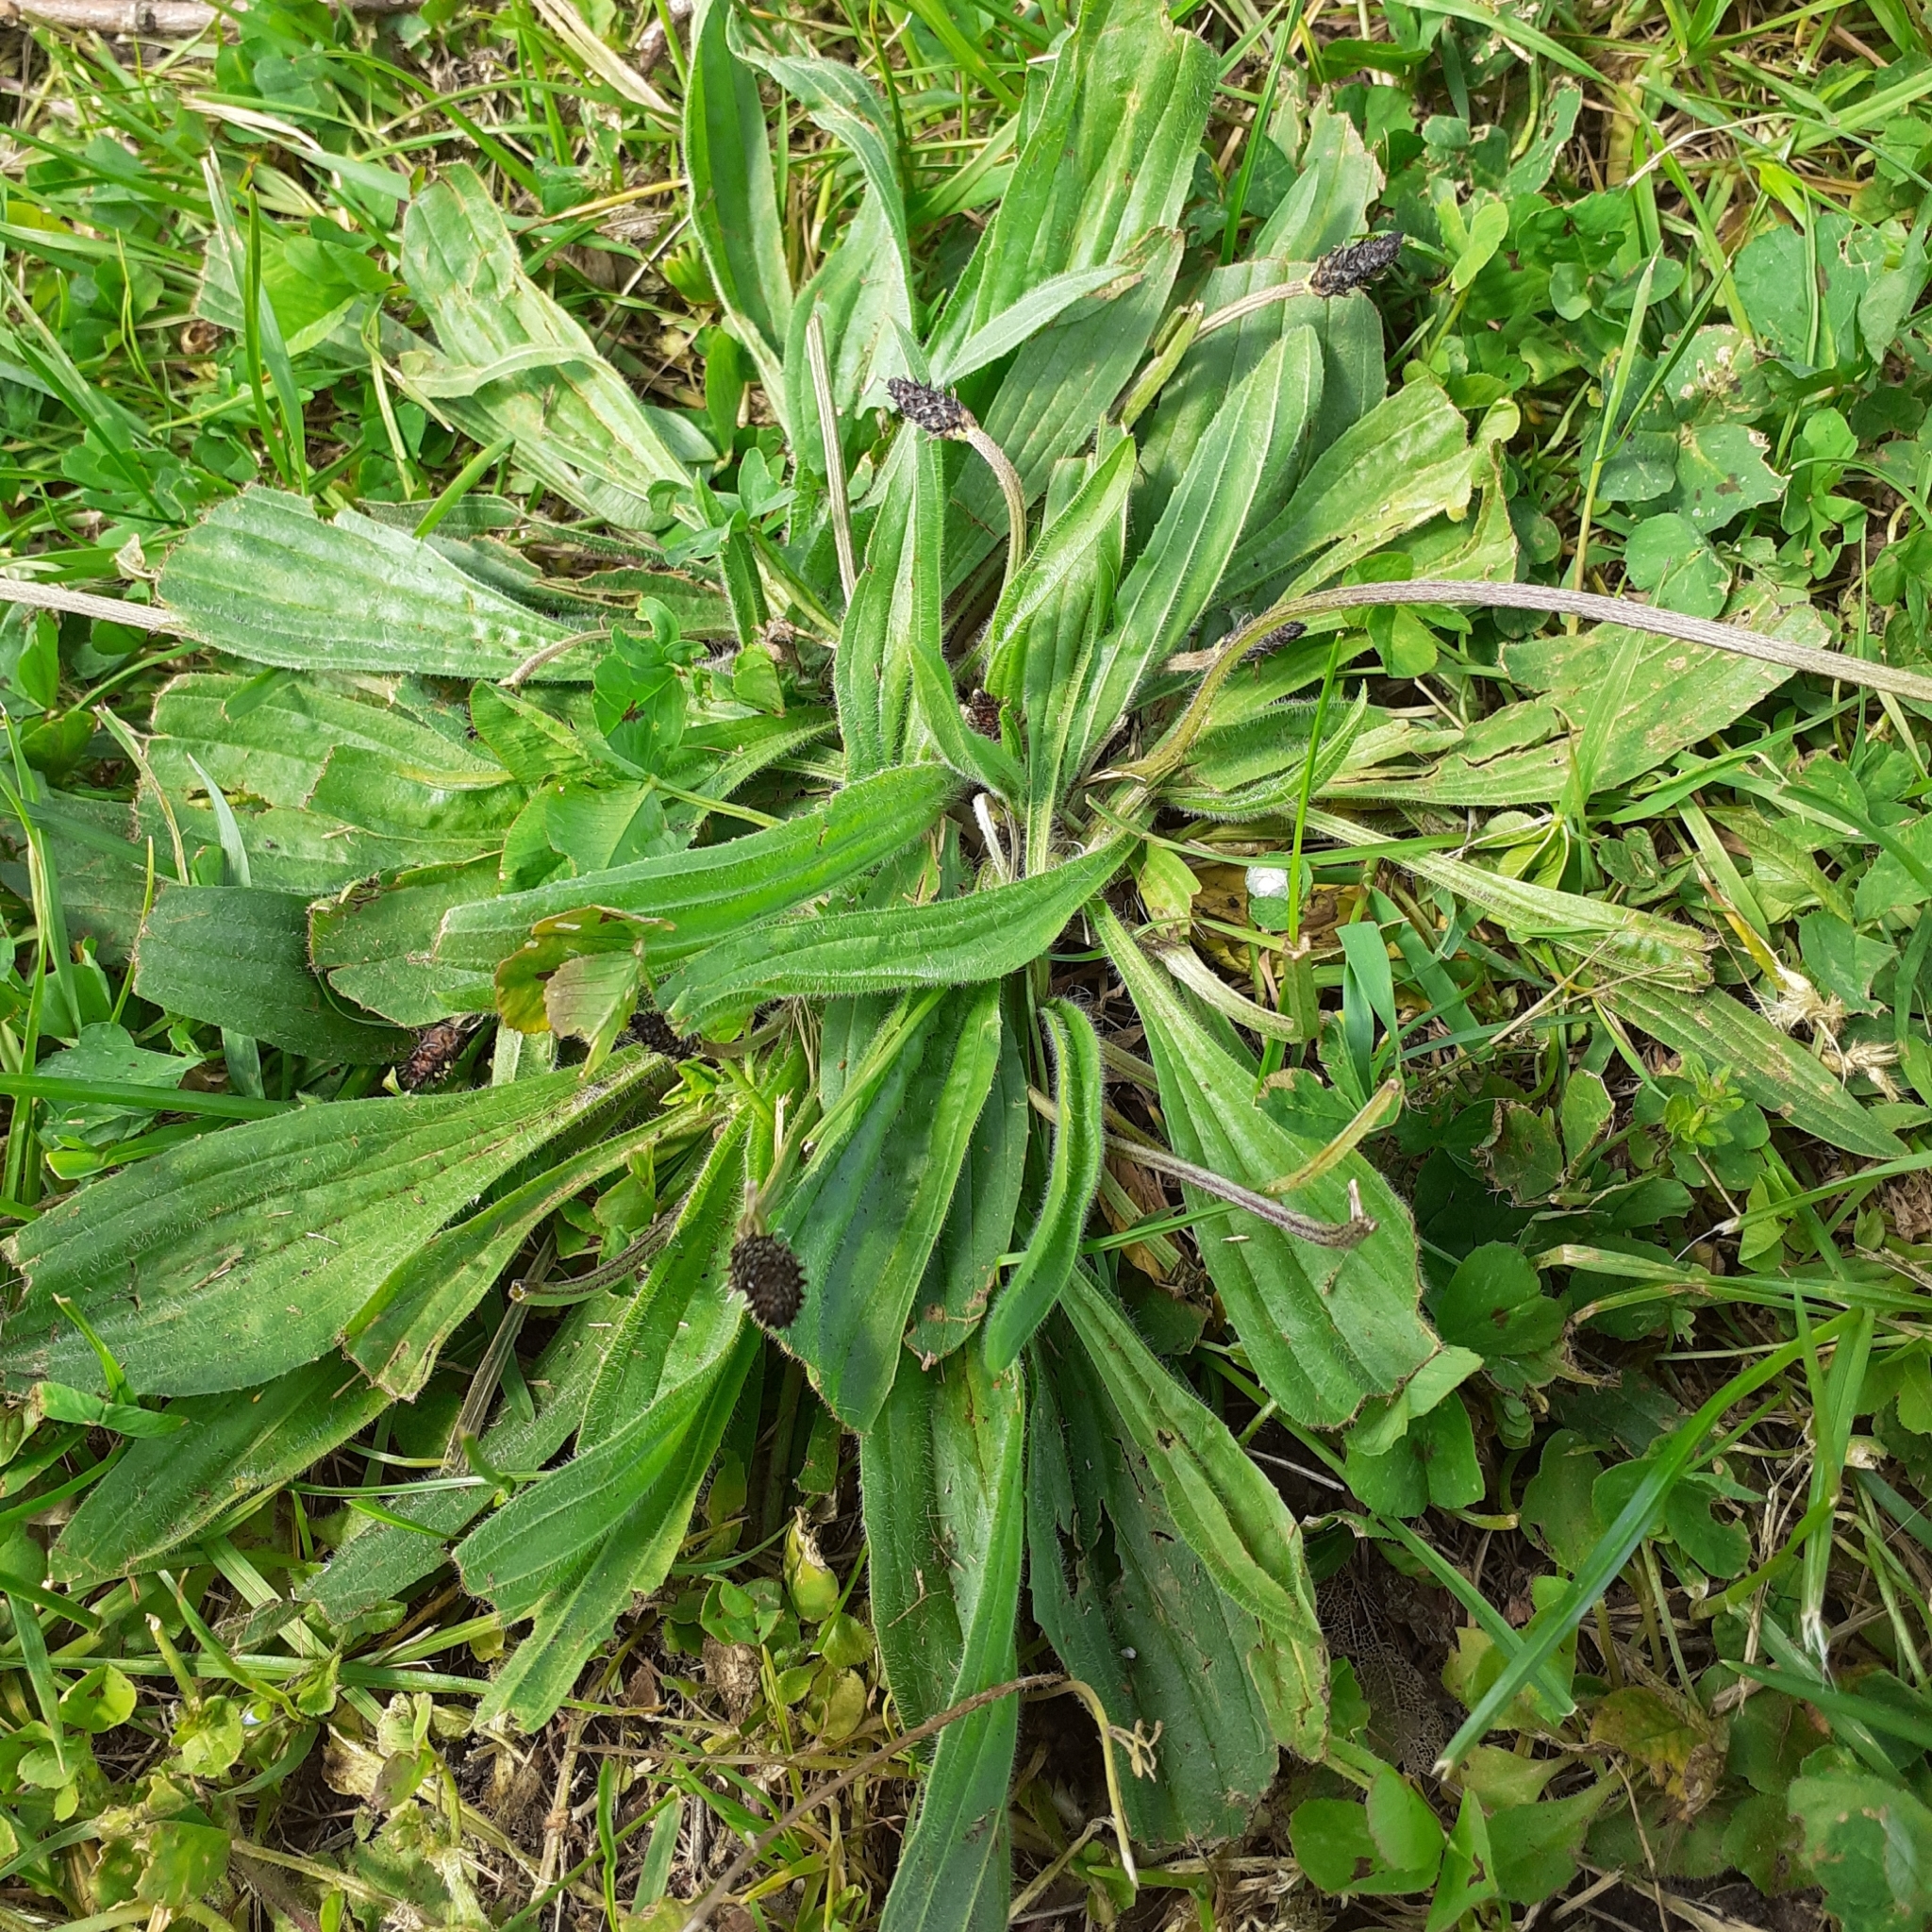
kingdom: Plantae
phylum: Tracheophyta
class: Magnoliopsida
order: Lamiales
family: Plantaginaceae
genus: Plantago
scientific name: Plantago lanceolata
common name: Ribwort plantain
